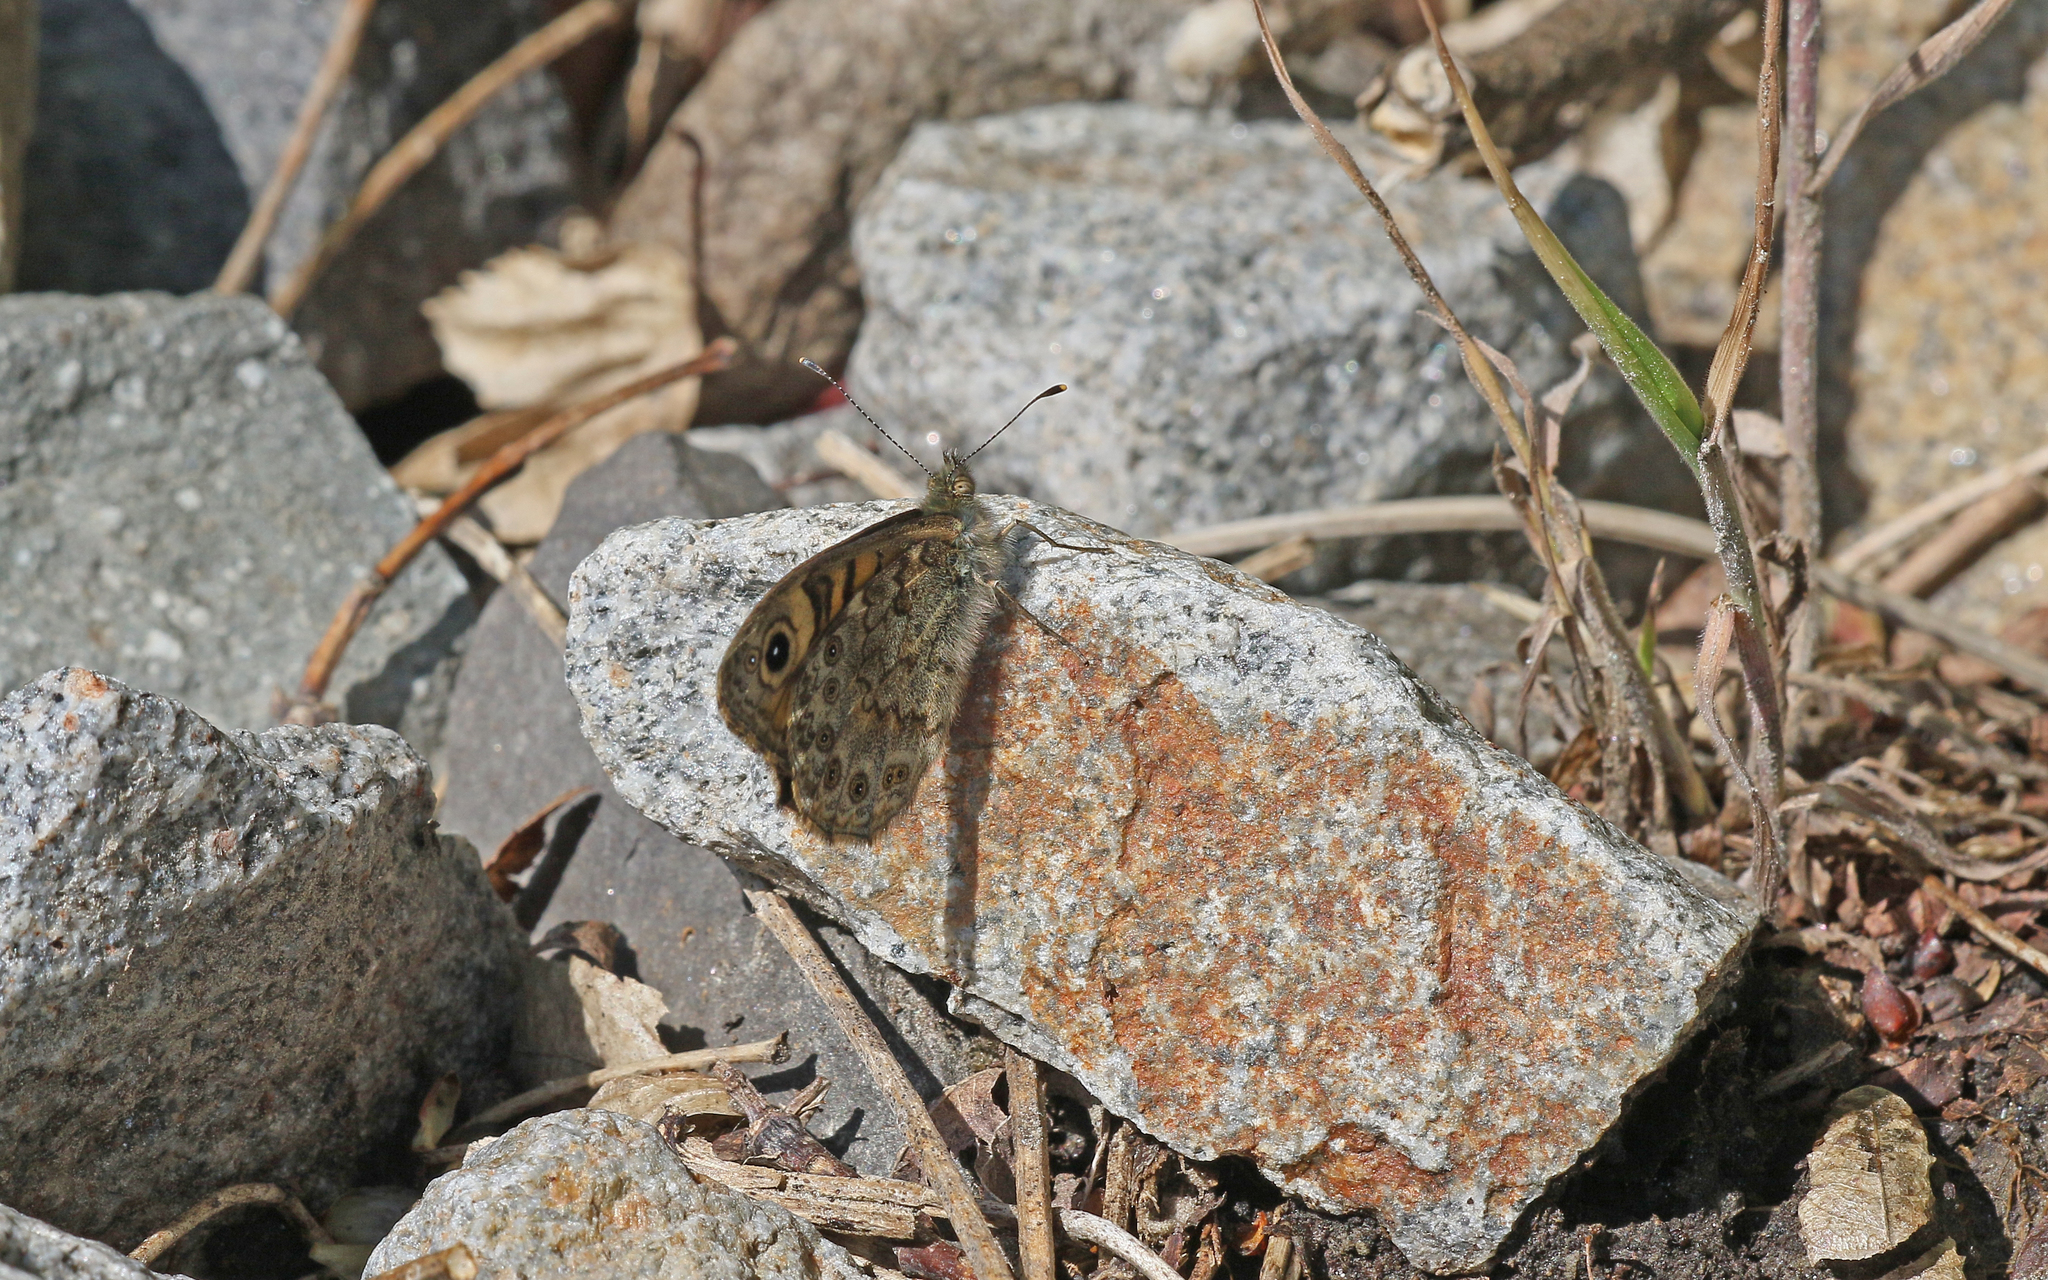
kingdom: Animalia
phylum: Arthropoda
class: Insecta
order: Lepidoptera
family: Nymphalidae
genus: Pararge
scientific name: Pararge Lasiommata megera
